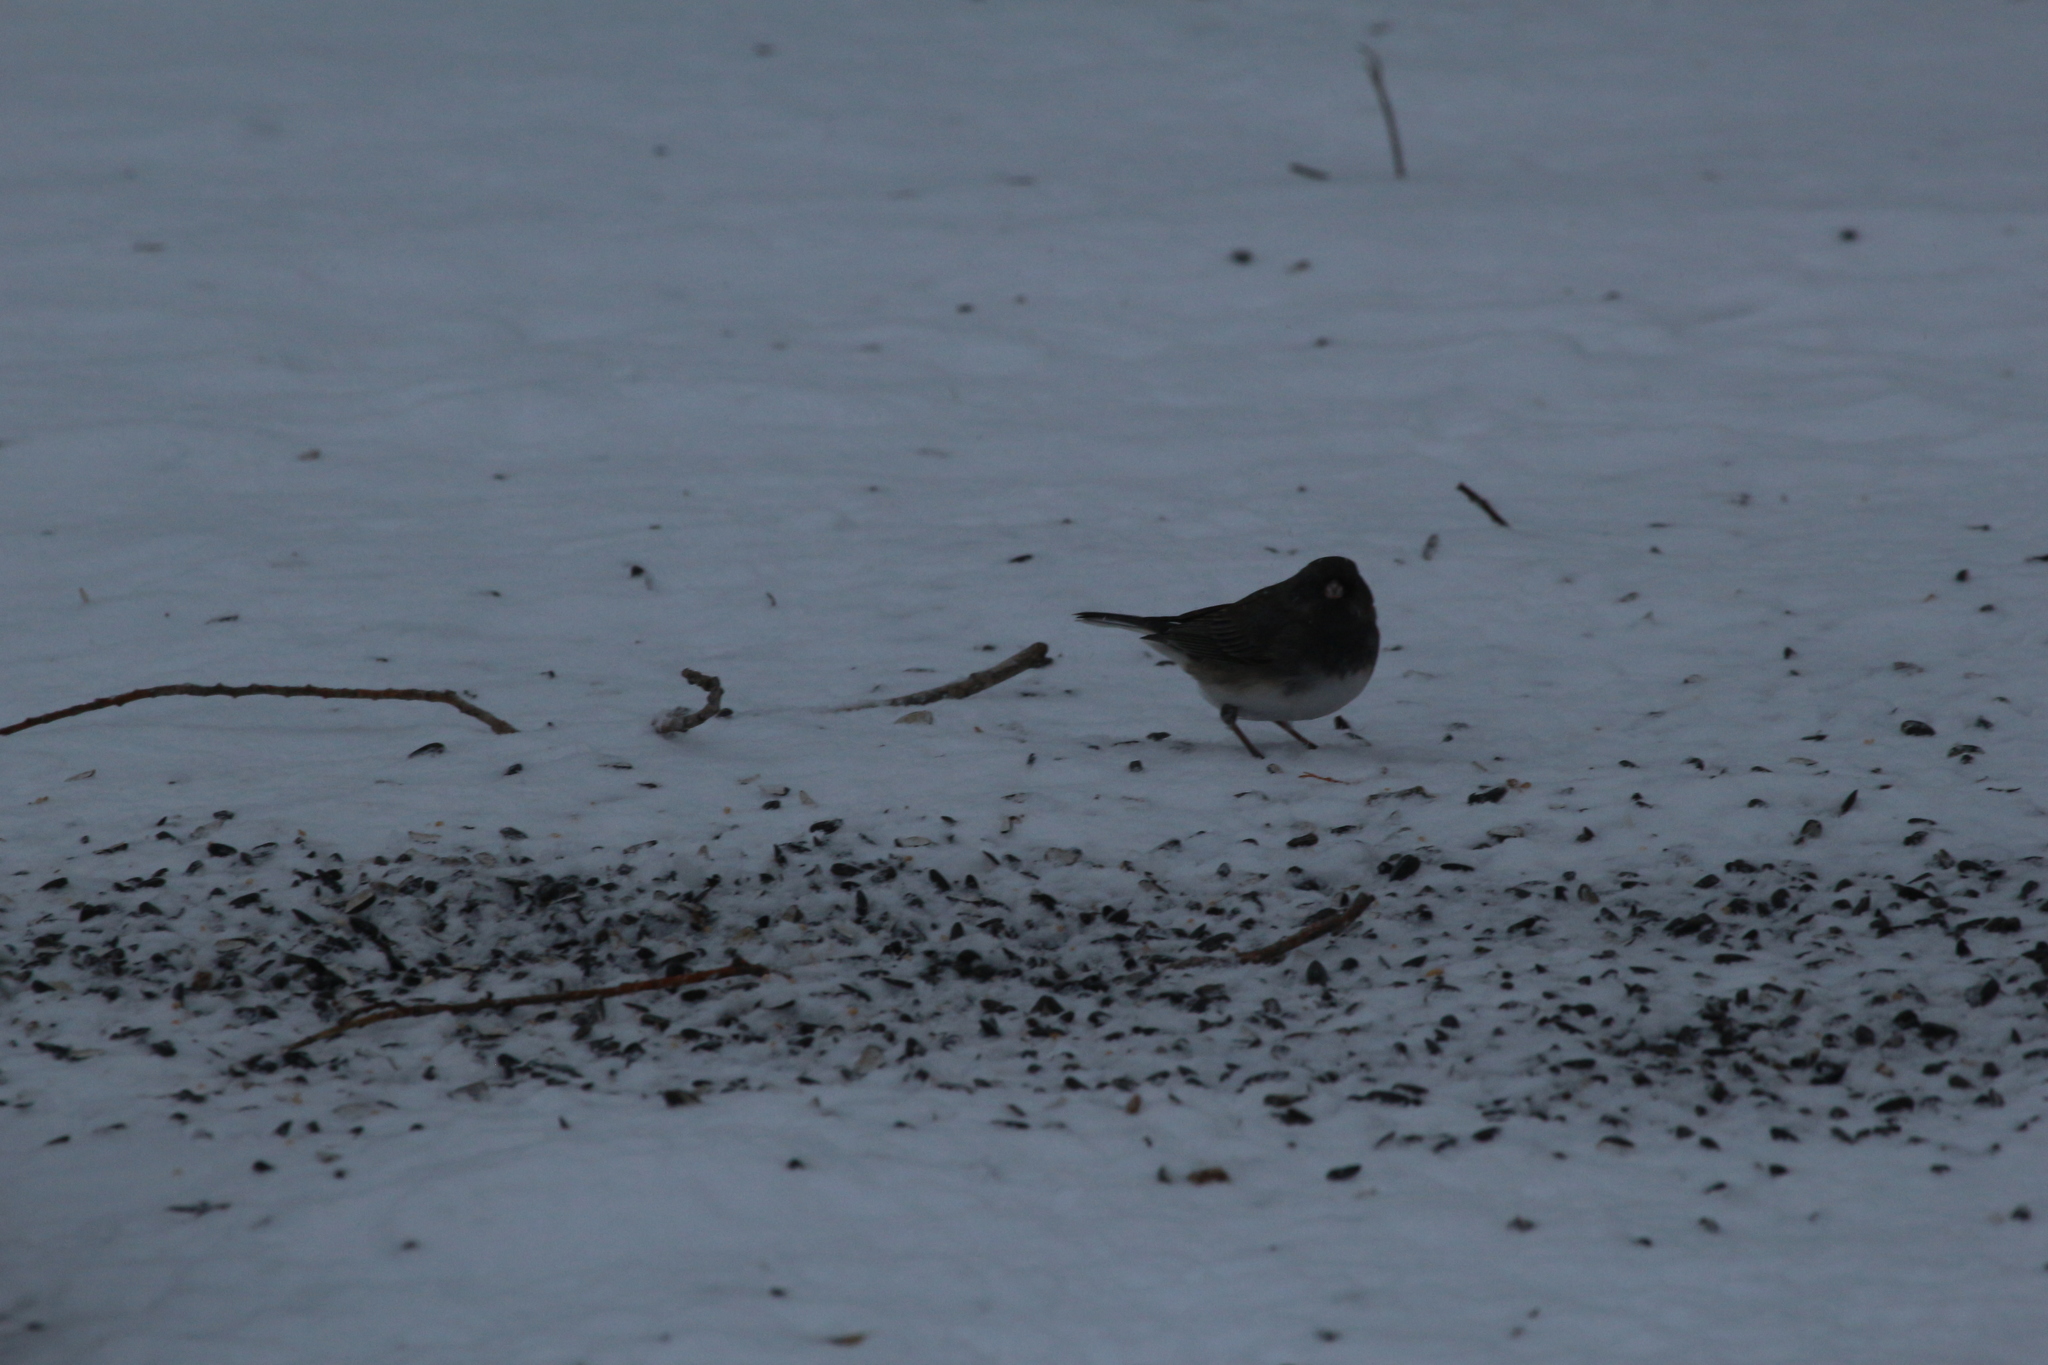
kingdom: Animalia
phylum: Chordata
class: Aves
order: Passeriformes
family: Passerellidae
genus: Junco
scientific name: Junco hyemalis
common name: Dark-eyed junco
